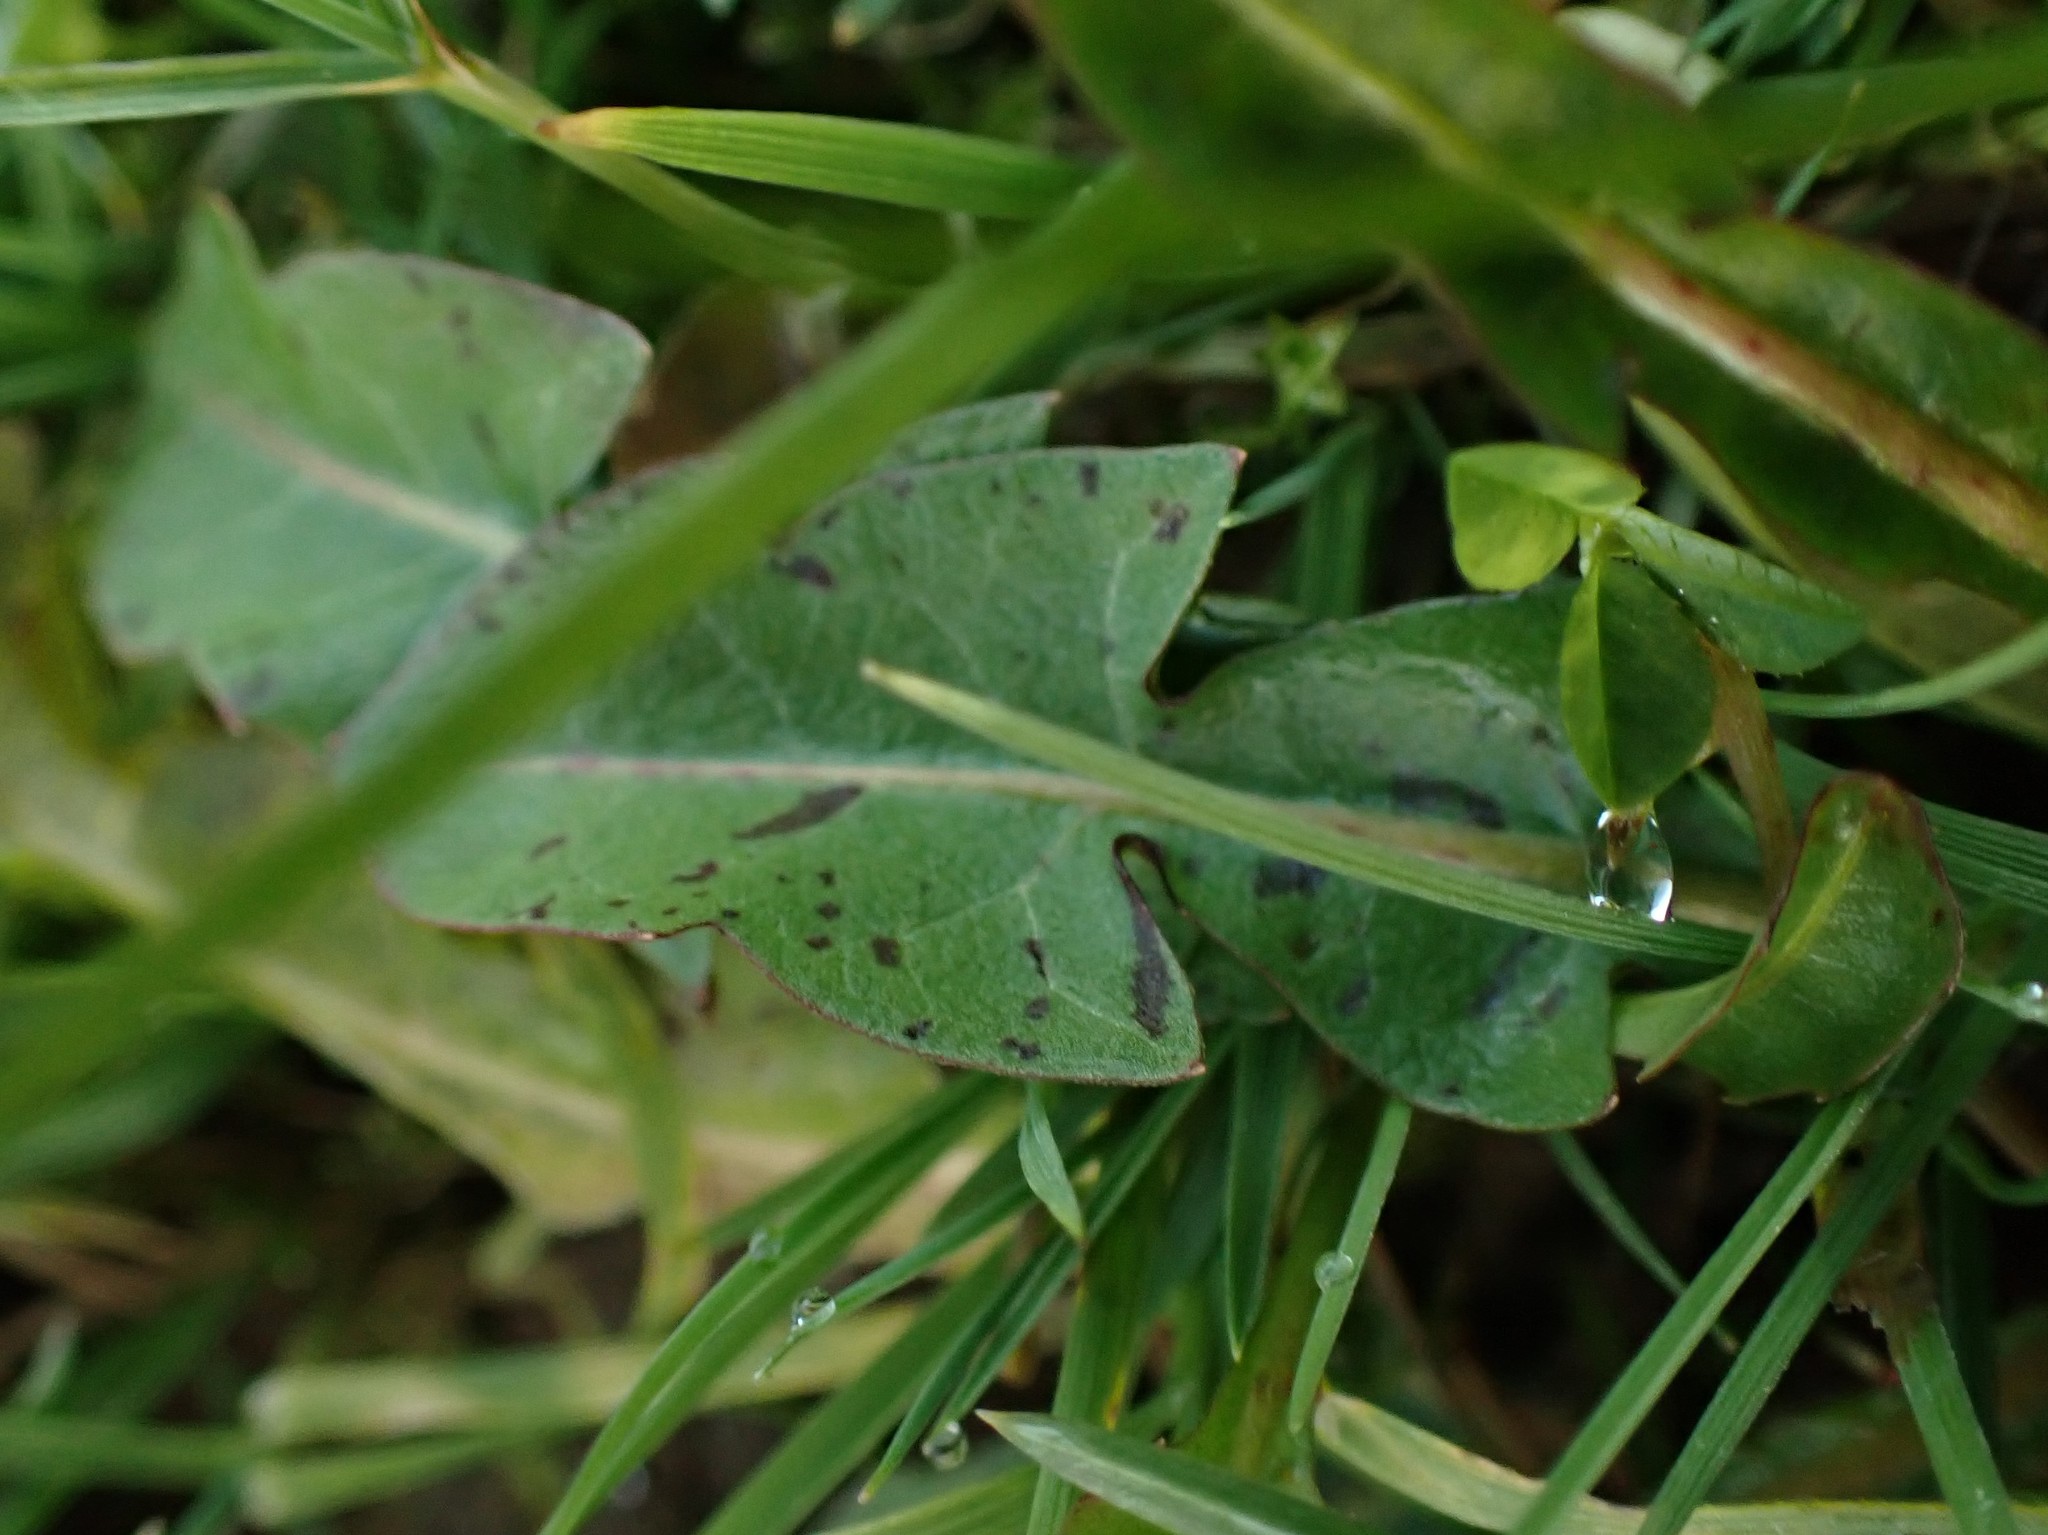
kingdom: Plantae
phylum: Tracheophyta
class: Magnoliopsida
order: Asterales
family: Asteraceae
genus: Taraxacum
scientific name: Taraxacum
